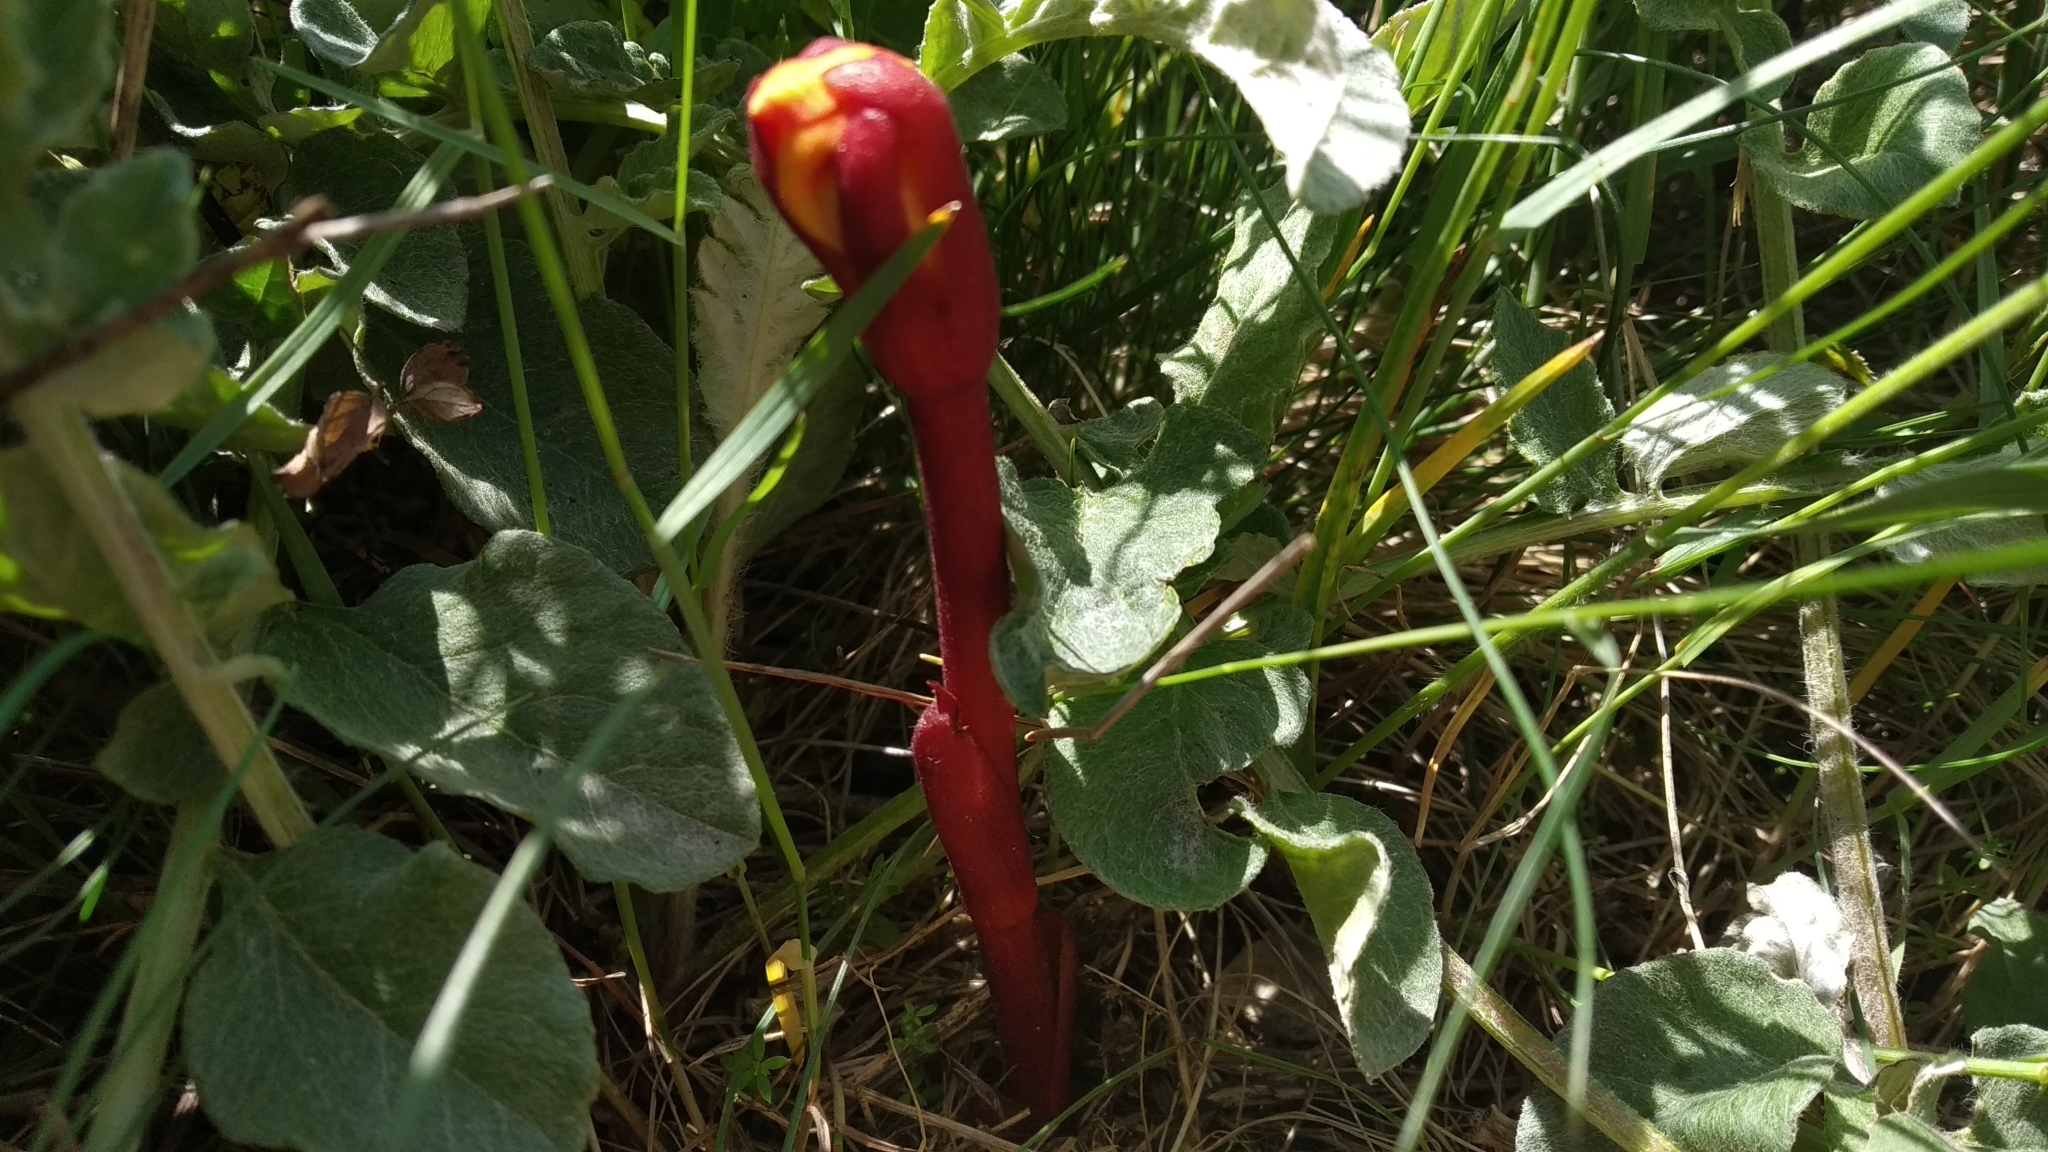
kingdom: Plantae
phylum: Tracheophyta
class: Magnoliopsida
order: Lamiales
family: Orobanchaceae
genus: Diphelypaea
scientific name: Diphelypaea coccinea
